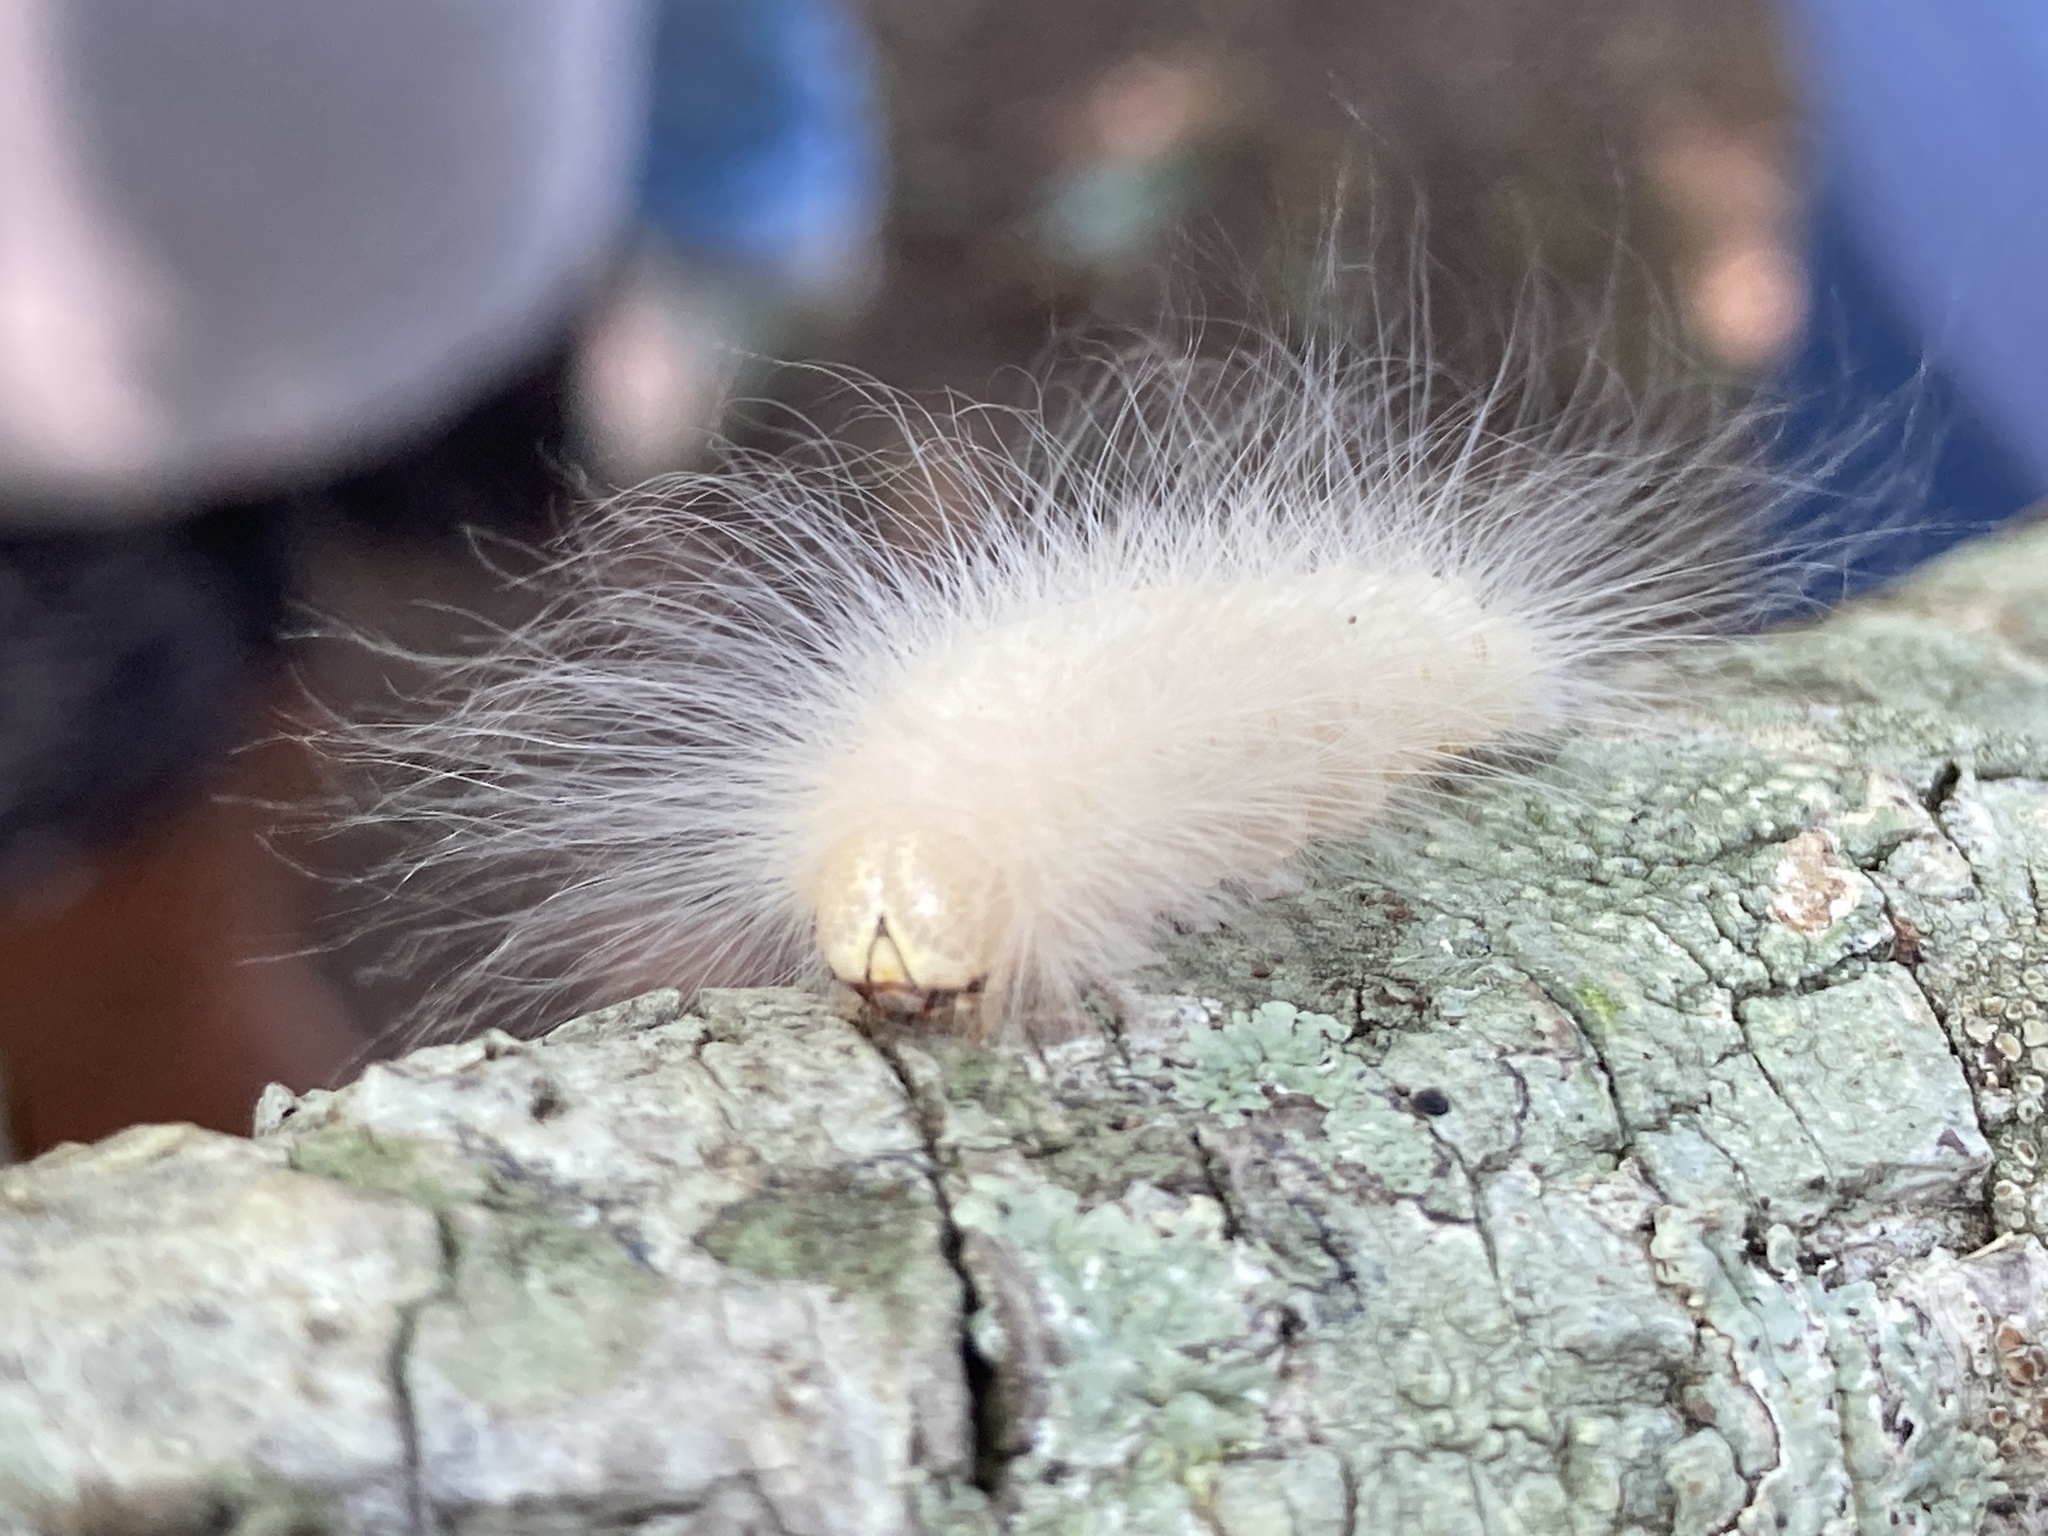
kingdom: Animalia
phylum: Arthropoda
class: Insecta
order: Lepidoptera
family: Noctuidae
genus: Charadra
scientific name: Charadra deridens
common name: Marbled tuffet
